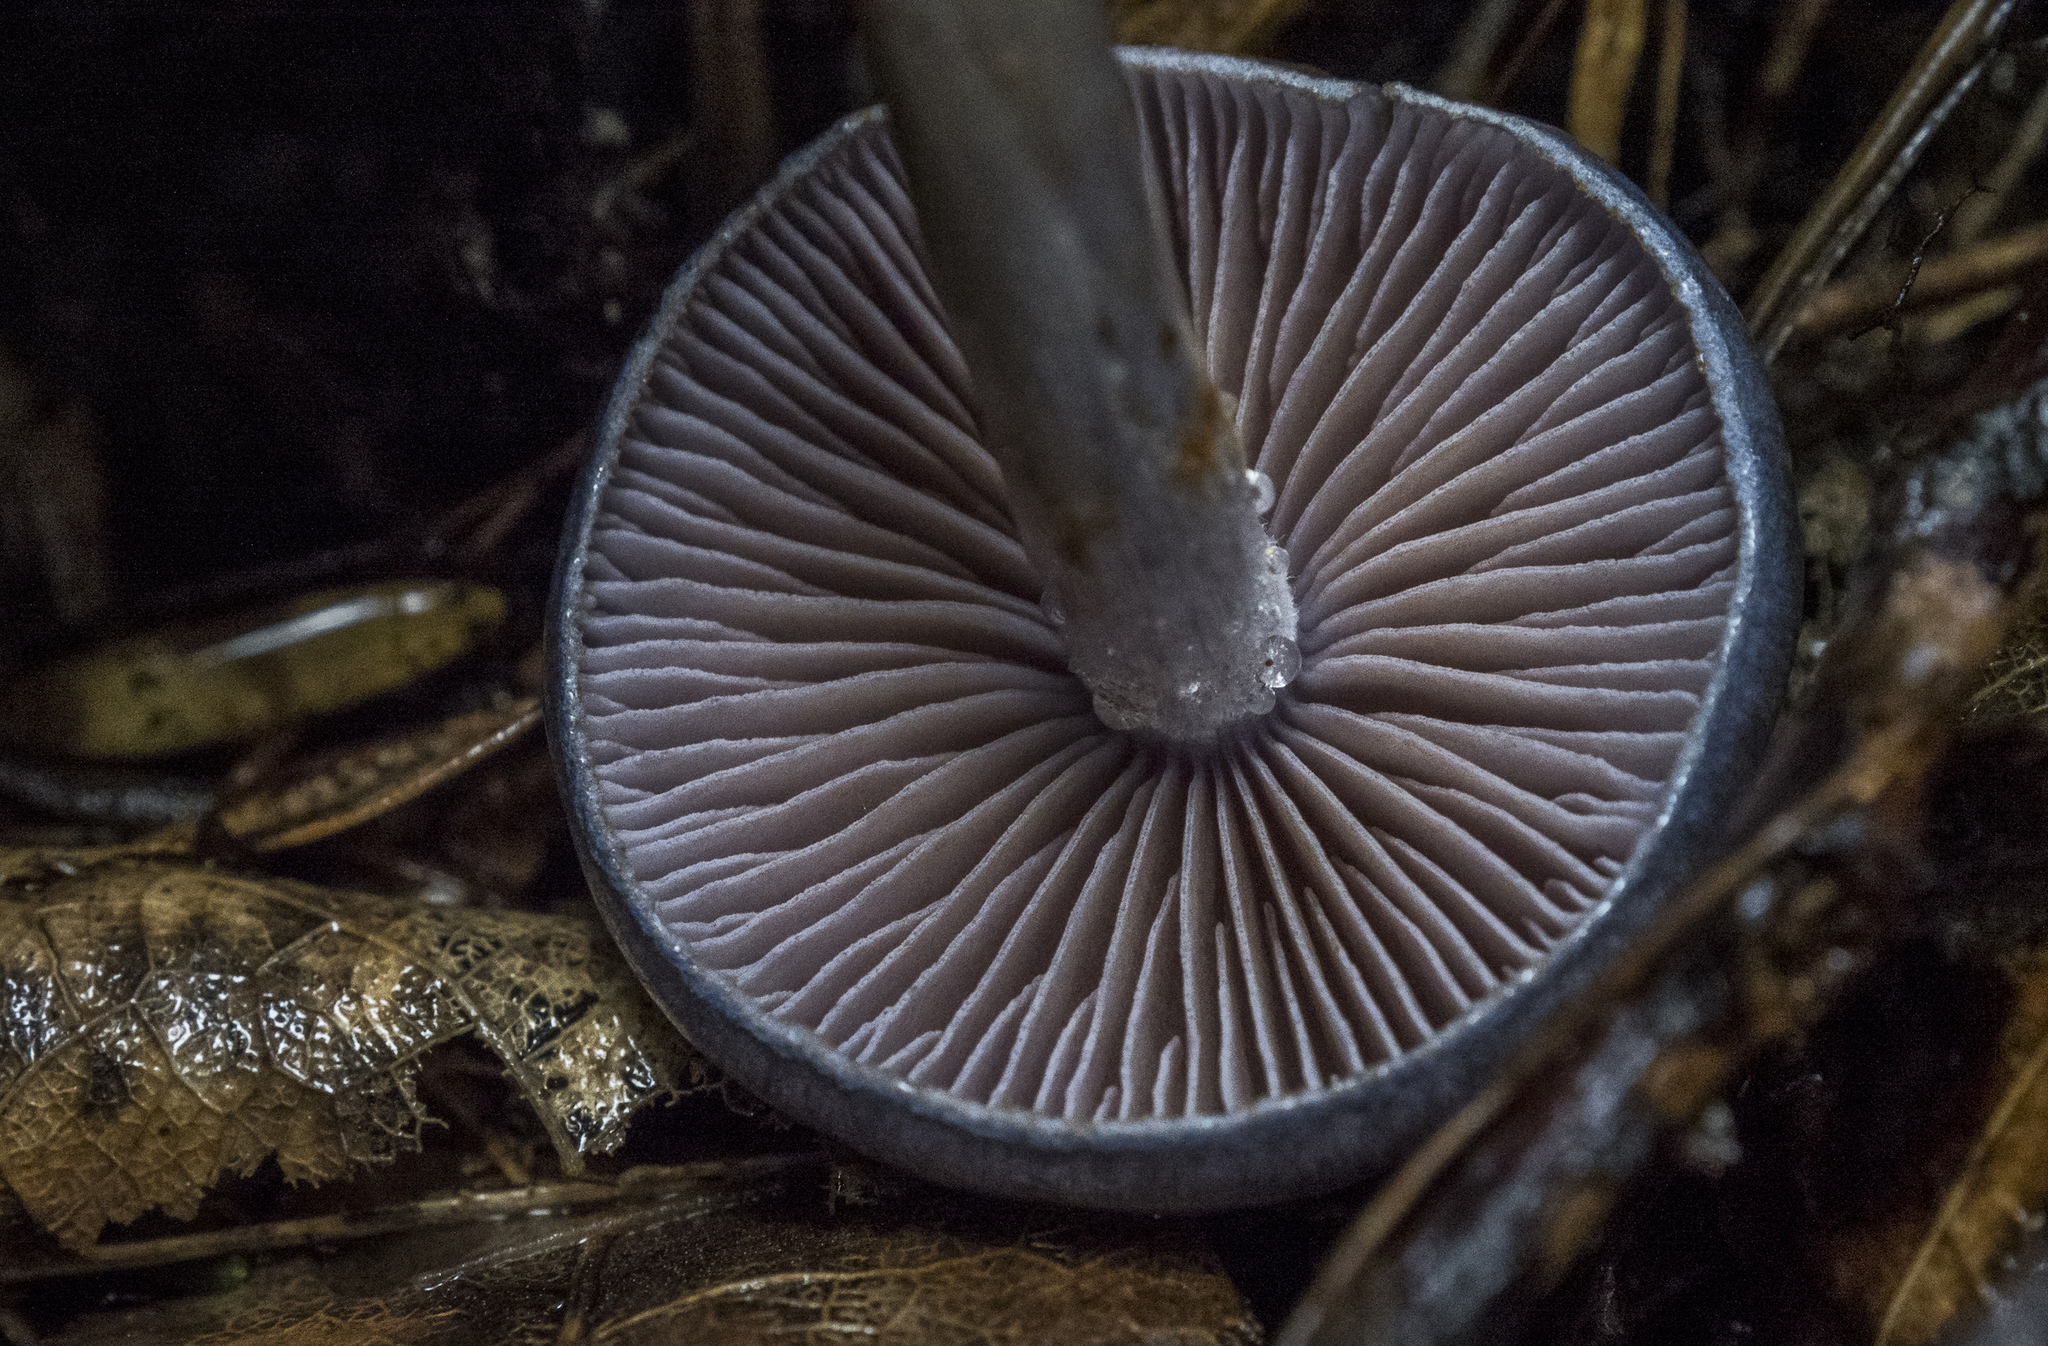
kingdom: Fungi
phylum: Basidiomycota
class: Agaricomycetes
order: Agaricales
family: Cortinariaceae
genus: Cortinarius
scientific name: Cortinarius rotundisporus
